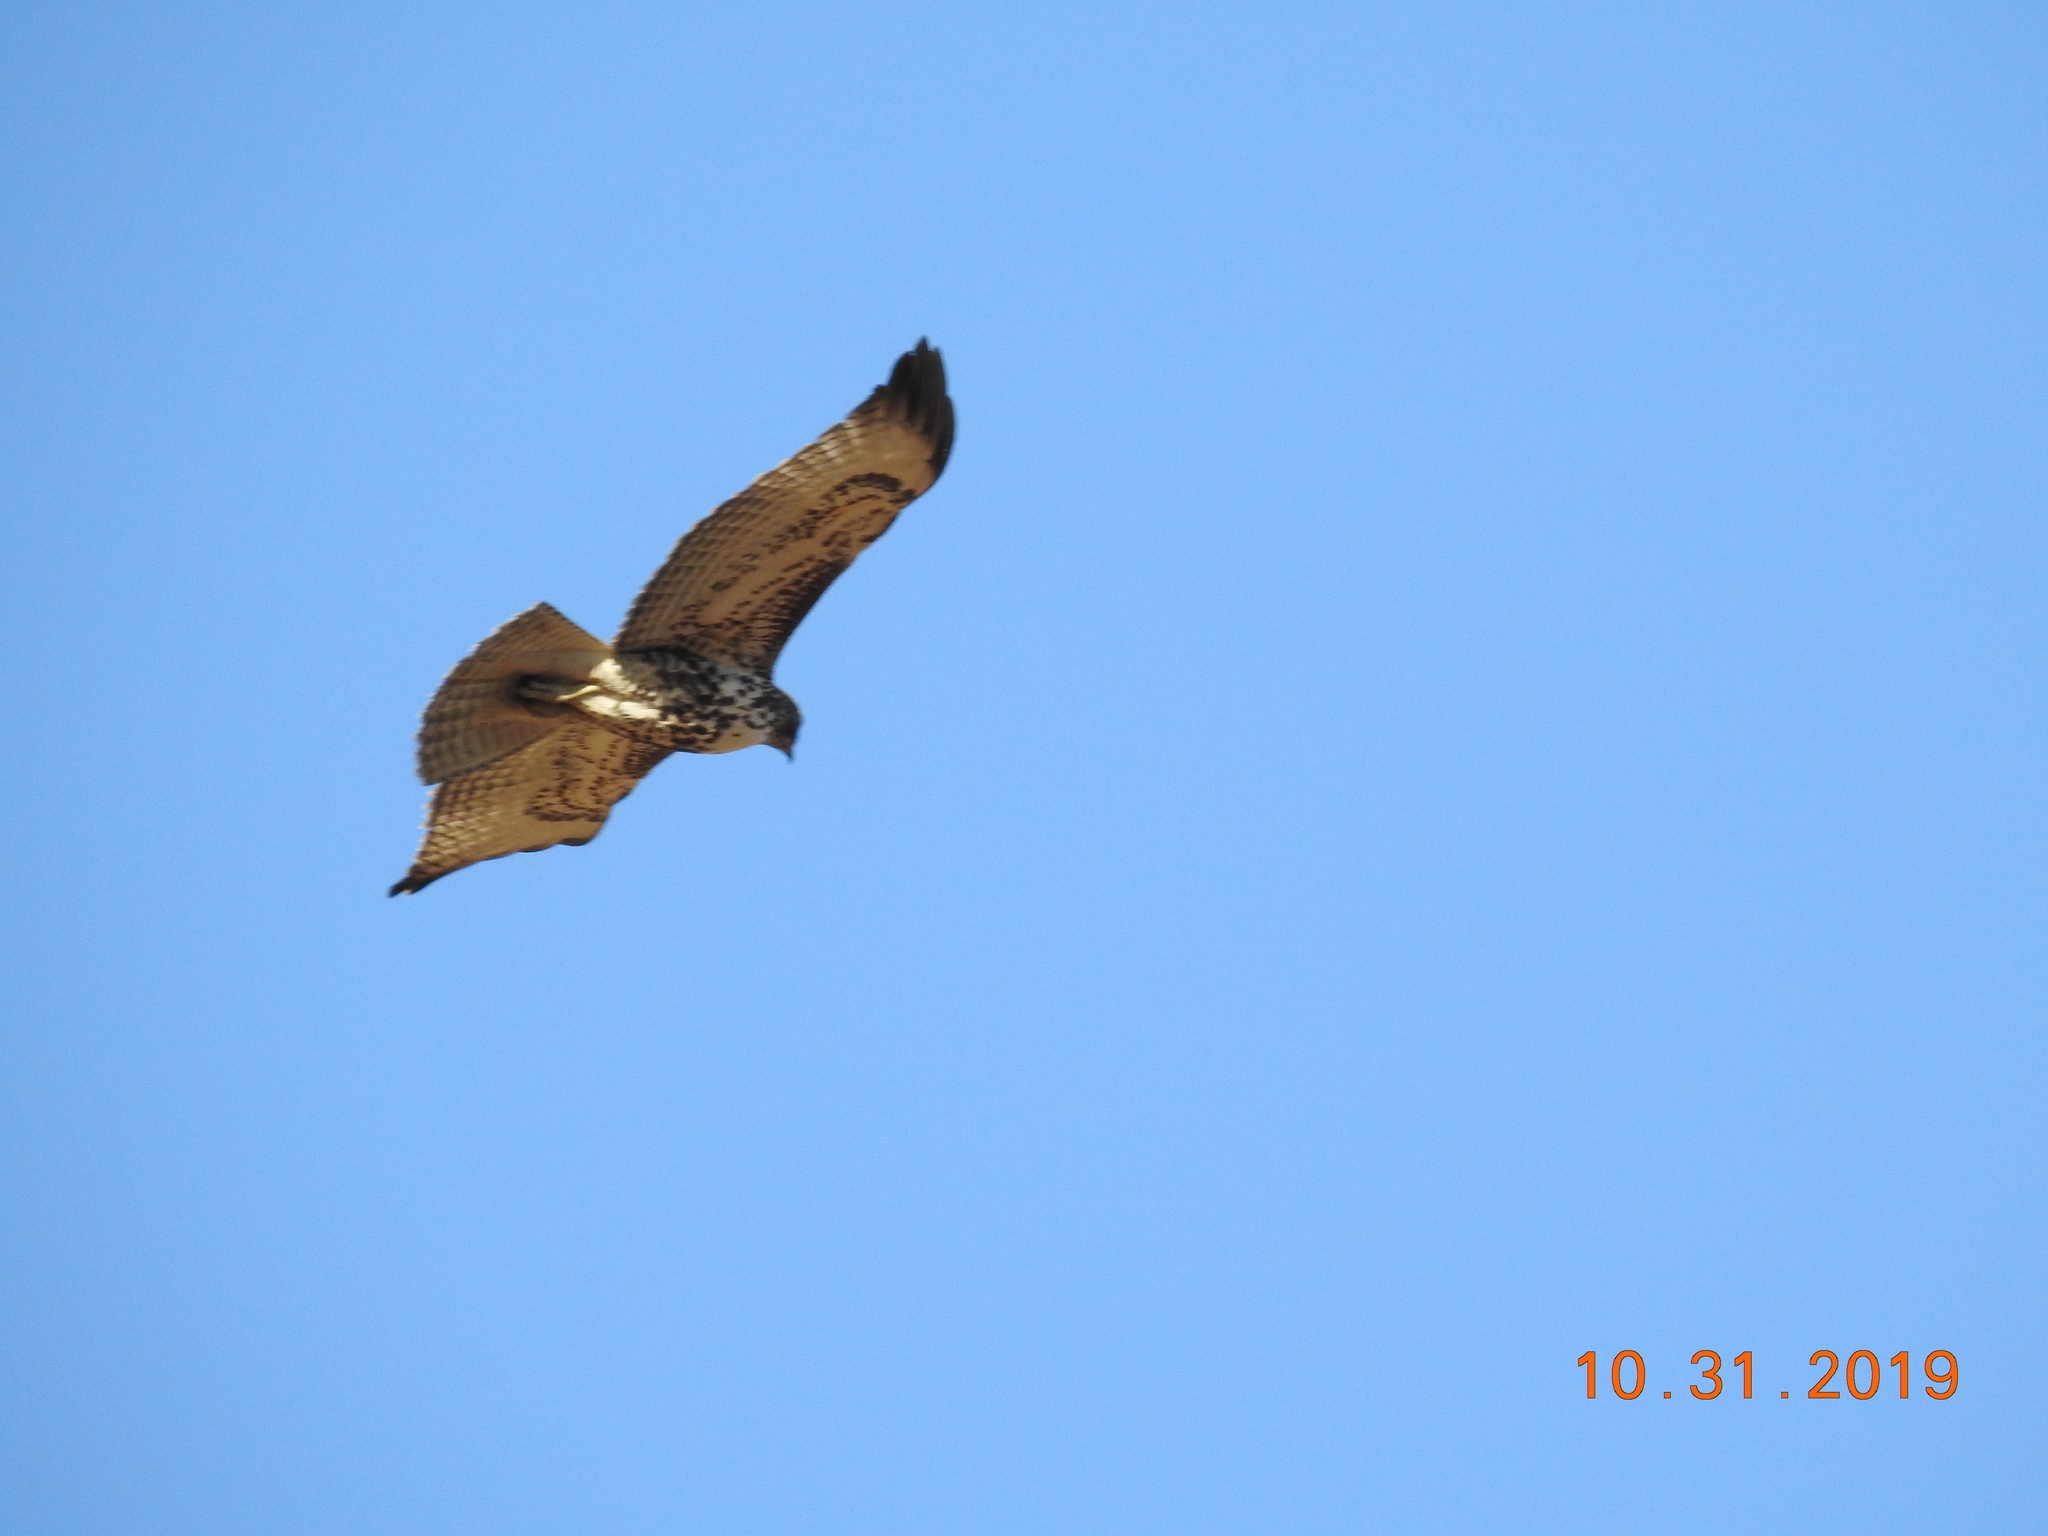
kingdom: Animalia
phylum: Chordata
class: Aves
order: Accipitriformes
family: Accipitridae
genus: Buteo
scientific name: Buteo jamaicensis
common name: Red-tailed hawk
